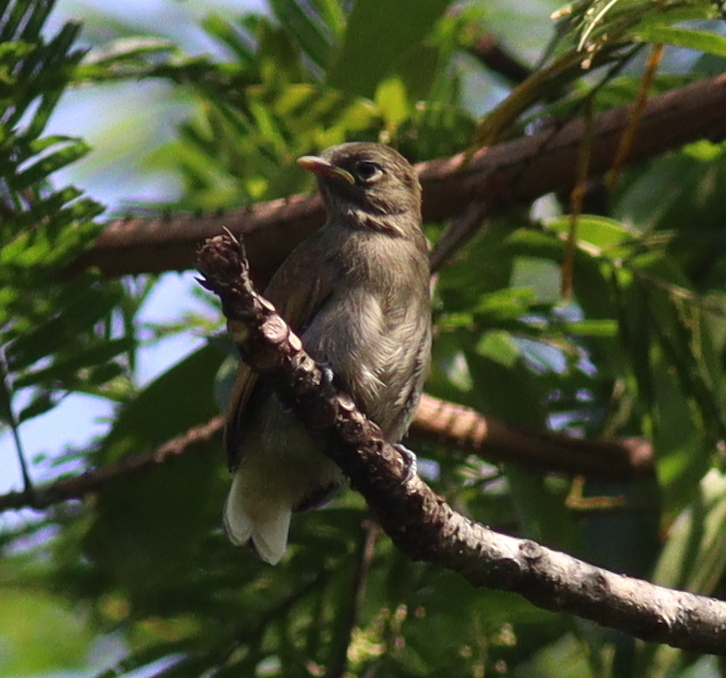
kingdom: Animalia
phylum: Chordata
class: Aves
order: Piciformes
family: Indicatoridae
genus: Prodotiscus
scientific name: Prodotiscus insignis
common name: Cassin's honeybird
